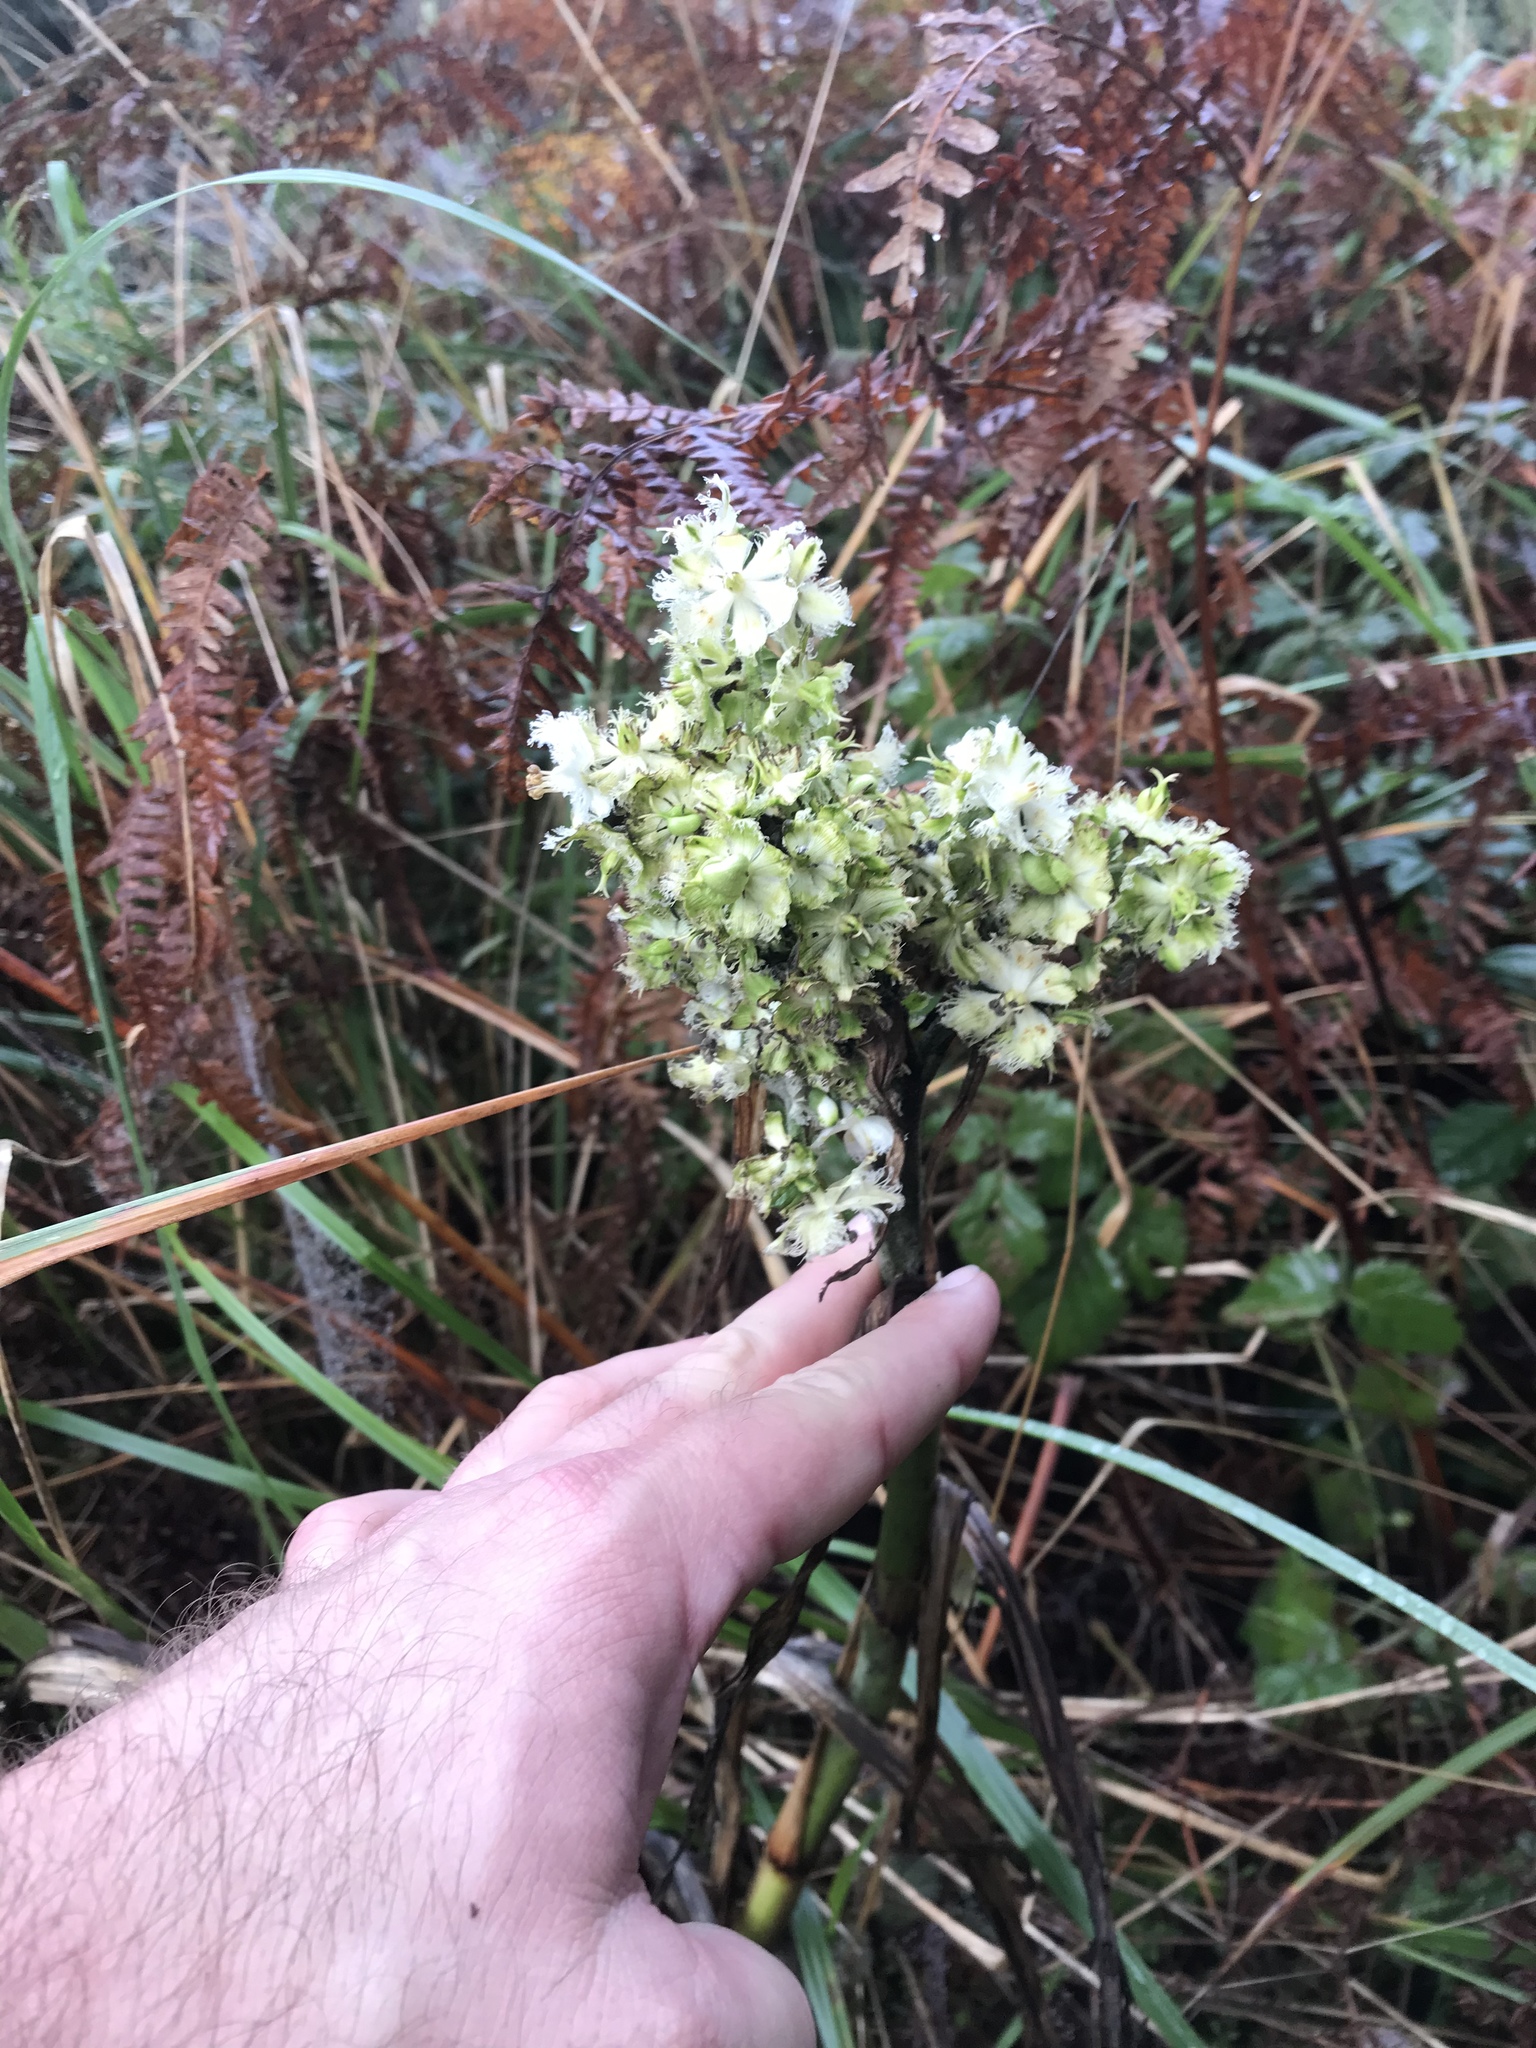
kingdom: Plantae
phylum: Tracheophyta
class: Liliopsida
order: Liliales
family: Melanthiaceae
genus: Veratrum
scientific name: Veratrum fimbriatum
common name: Fringe false hellobore
